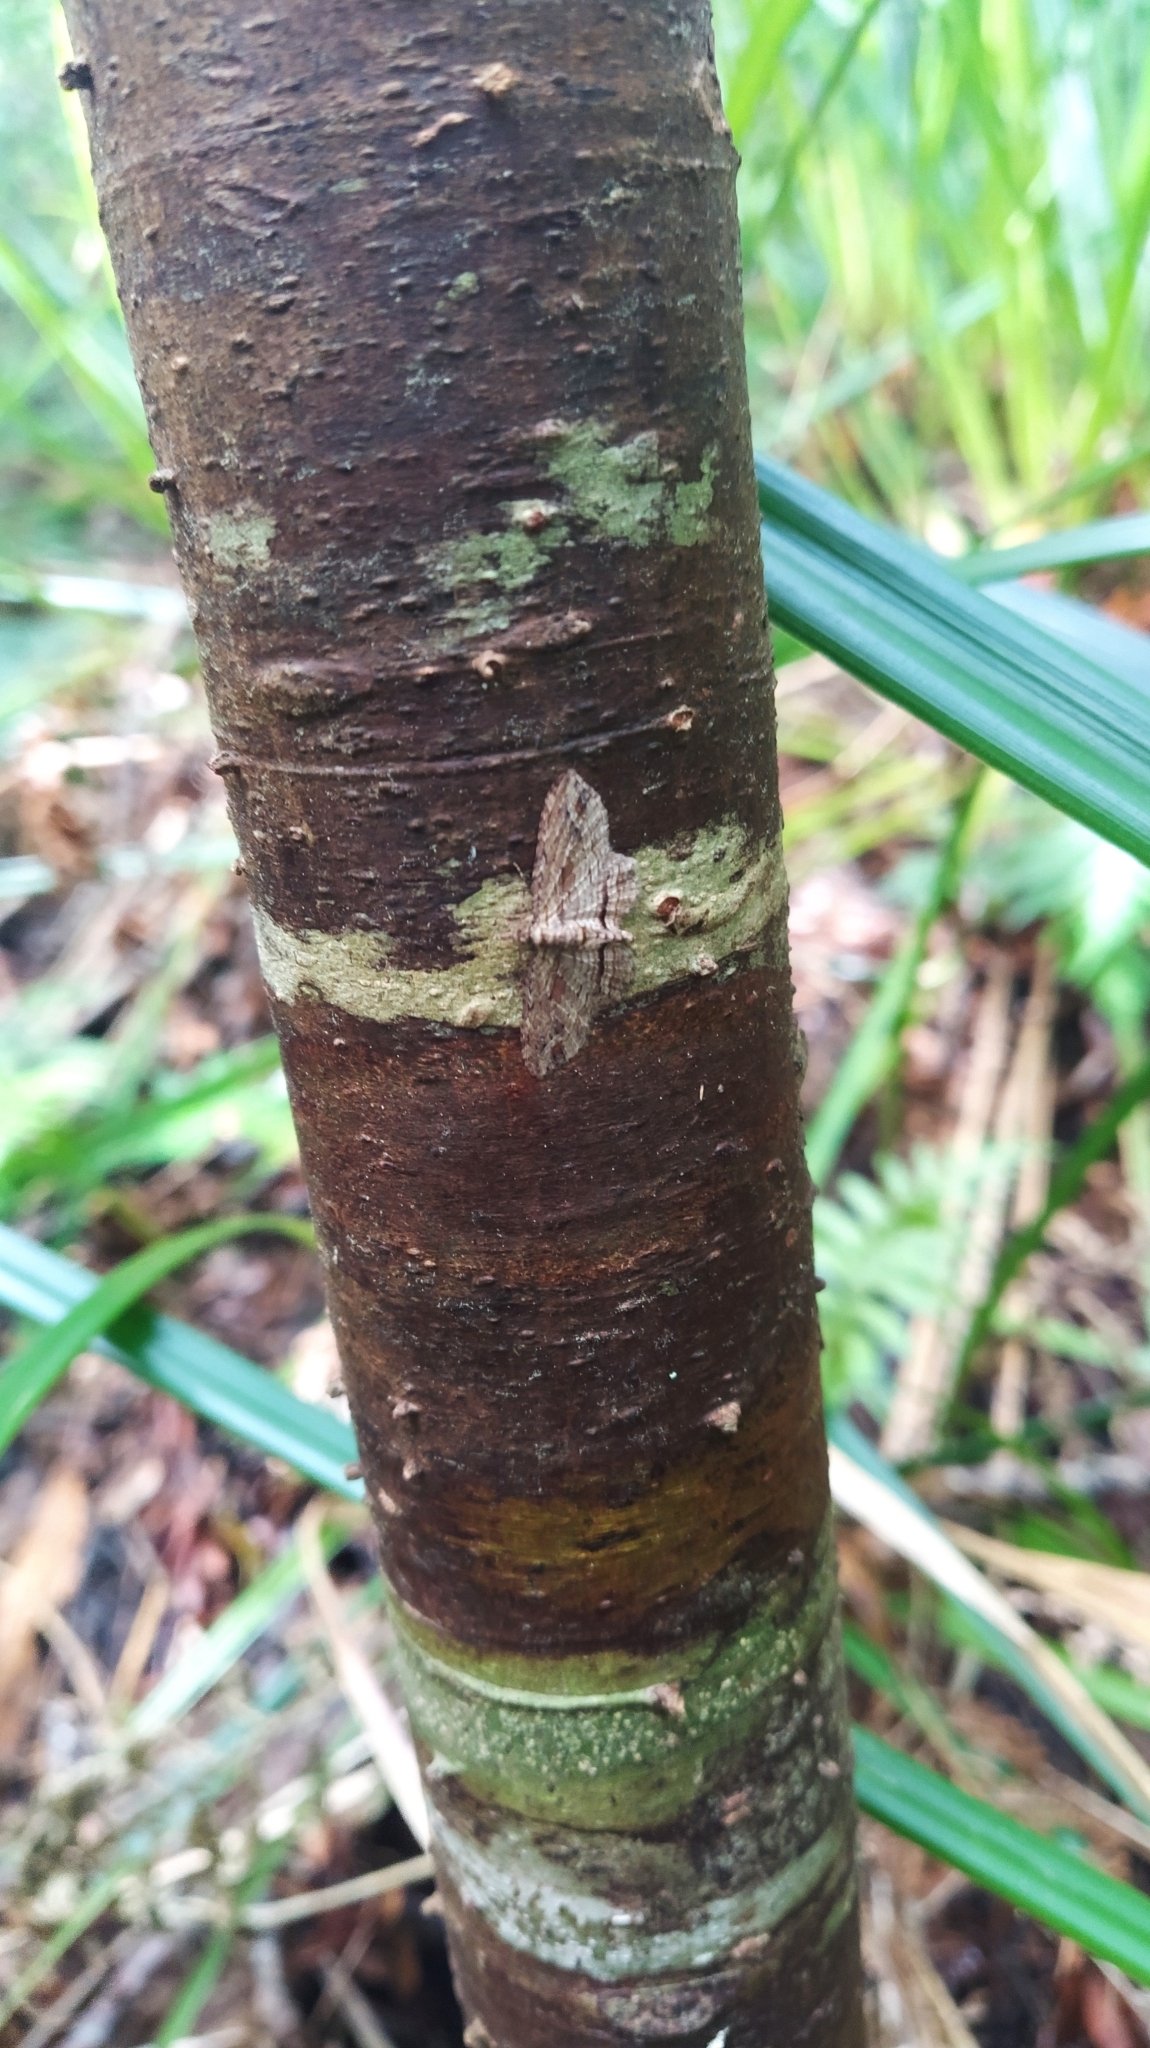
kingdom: Animalia
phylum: Arthropoda
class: Insecta
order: Lepidoptera
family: Geometridae
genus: Chloroclystis
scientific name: Chloroclystis filata
